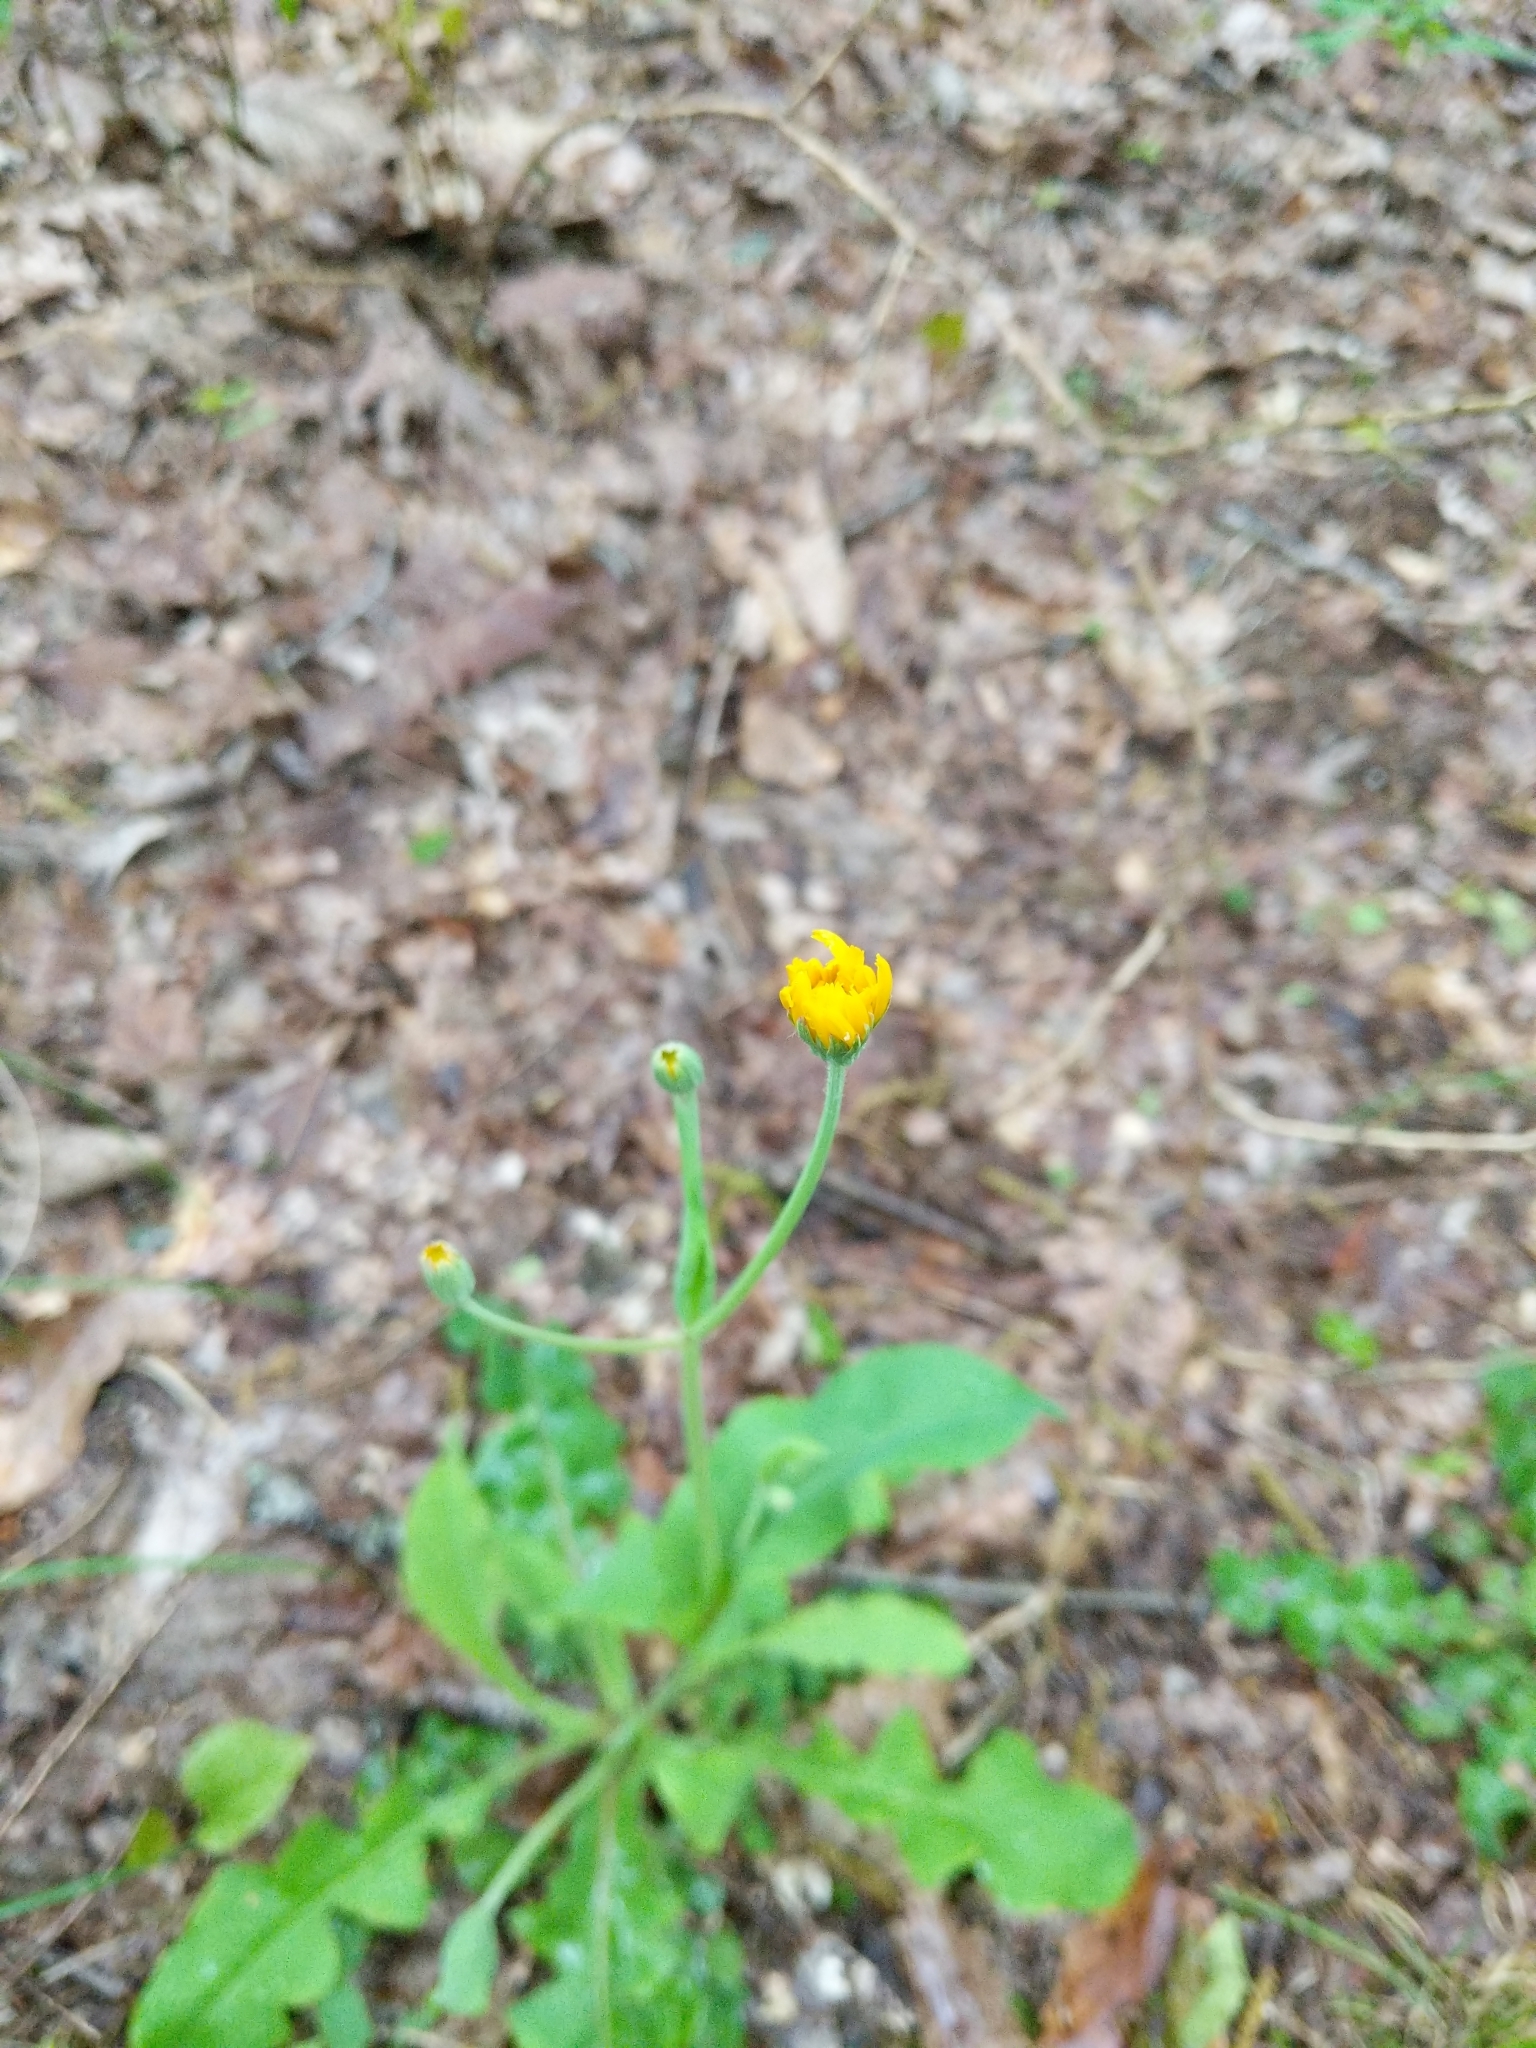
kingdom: Plantae
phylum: Tracheophyta
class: Magnoliopsida
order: Asterales
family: Asteraceae
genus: Krigia
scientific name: Krigia biflora
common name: Orange dwarf-dandelion
